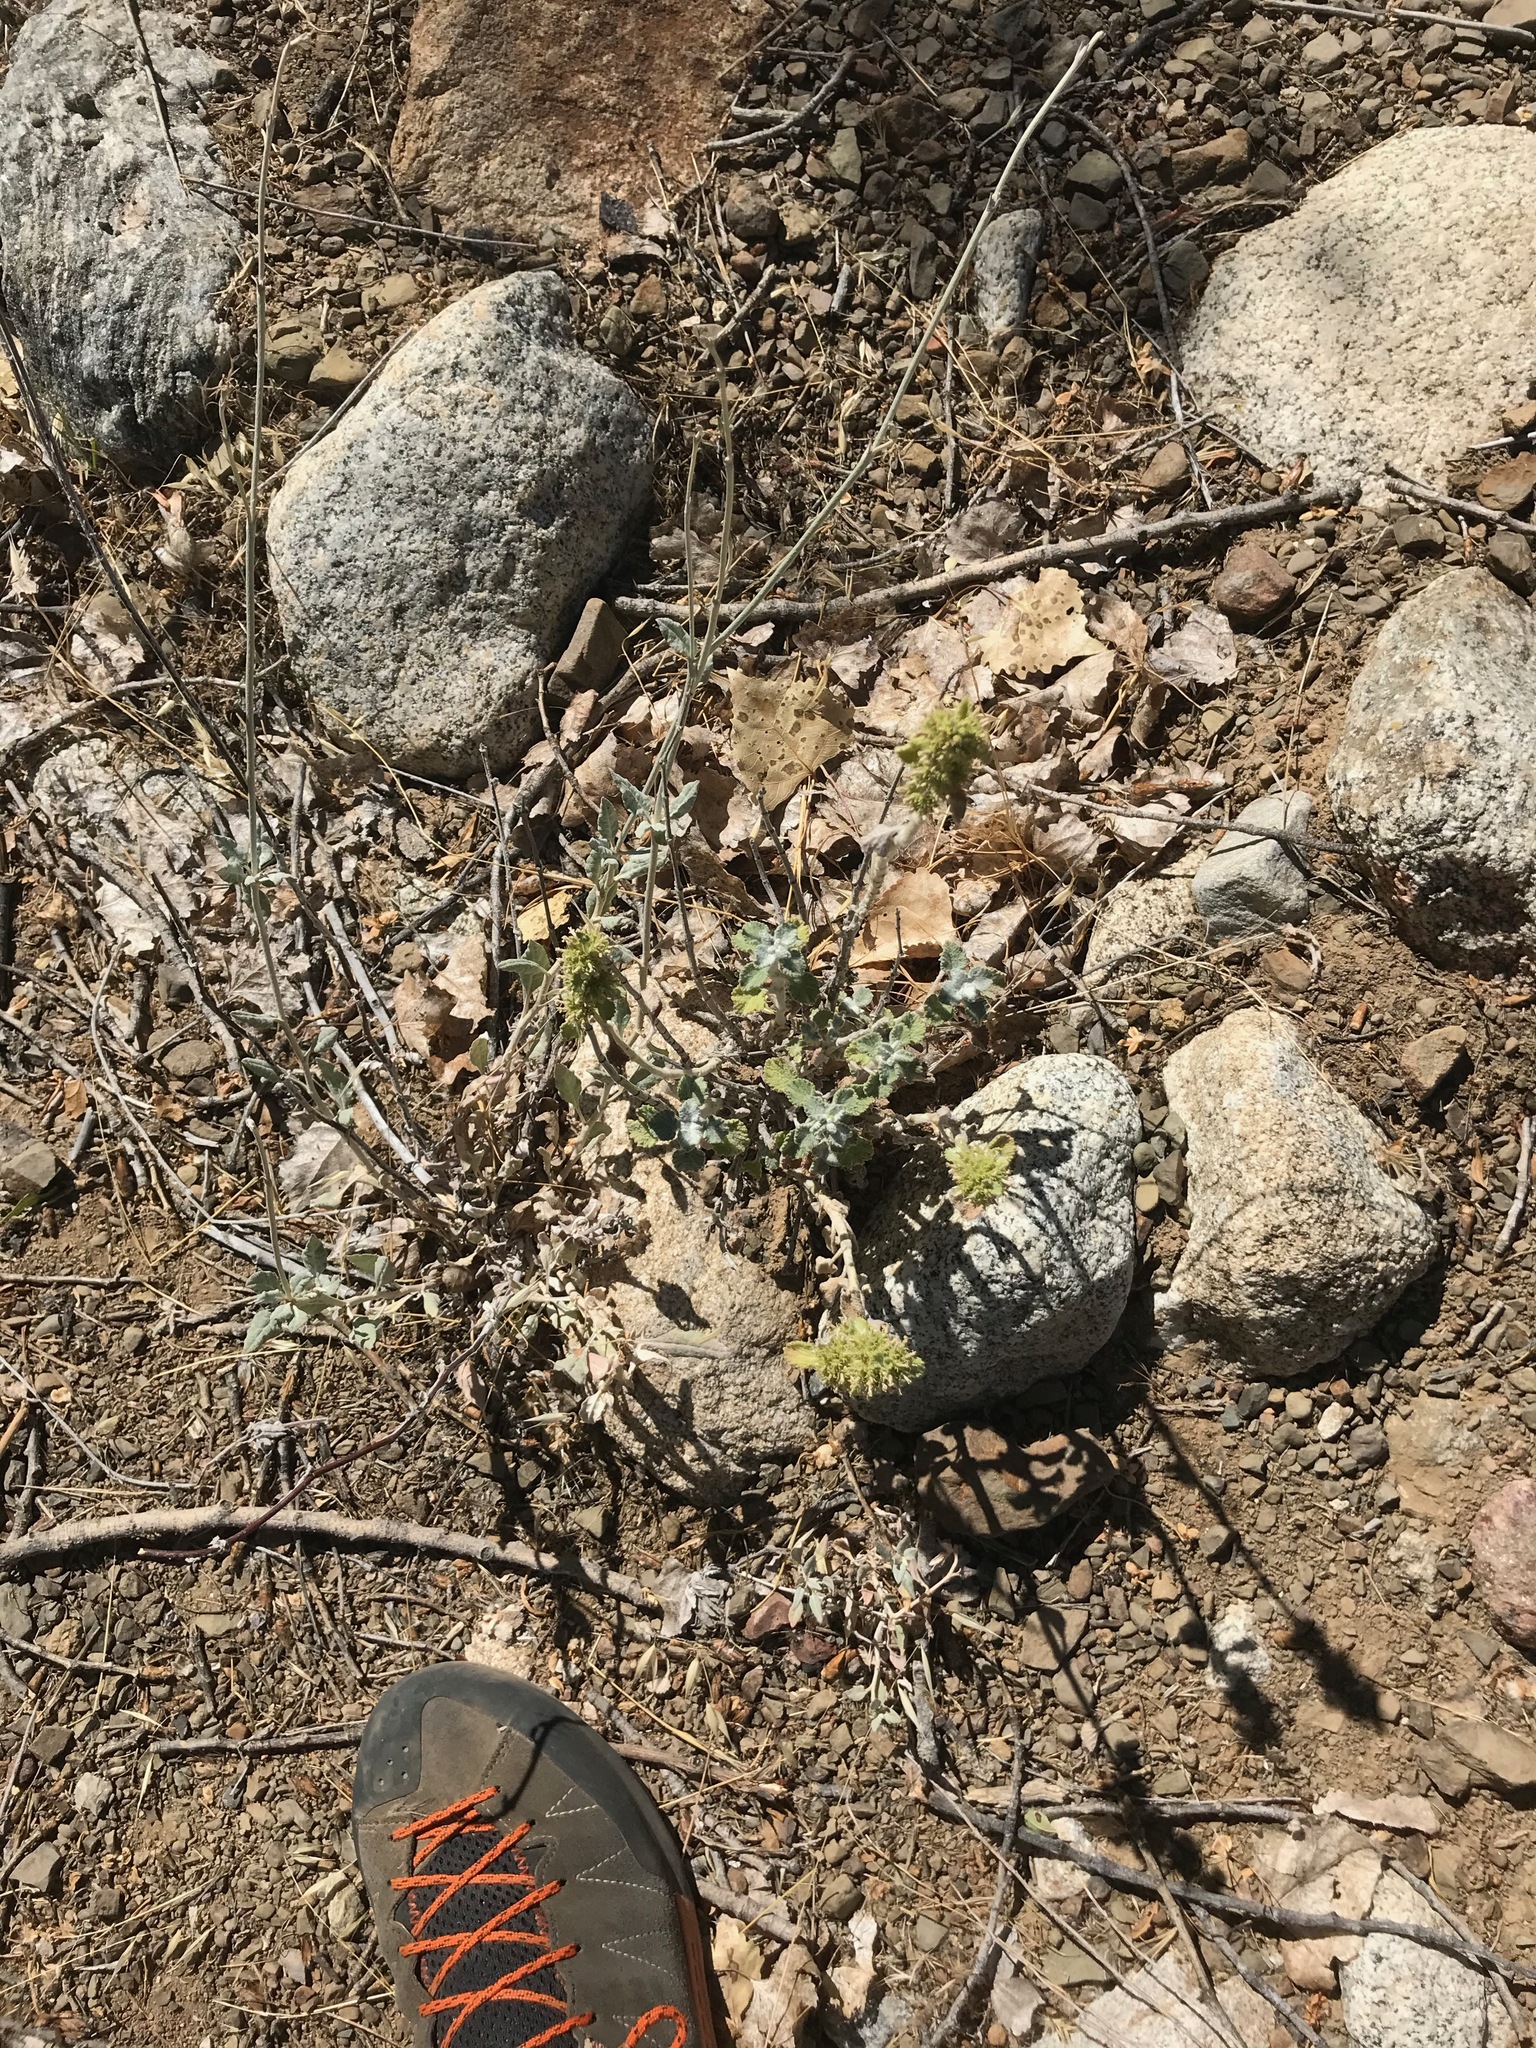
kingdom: Plantae
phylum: Tracheophyta
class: Magnoliopsida
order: Lamiales
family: Lamiaceae
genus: Marrubium
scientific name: Marrubium vulgare
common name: Horehound
